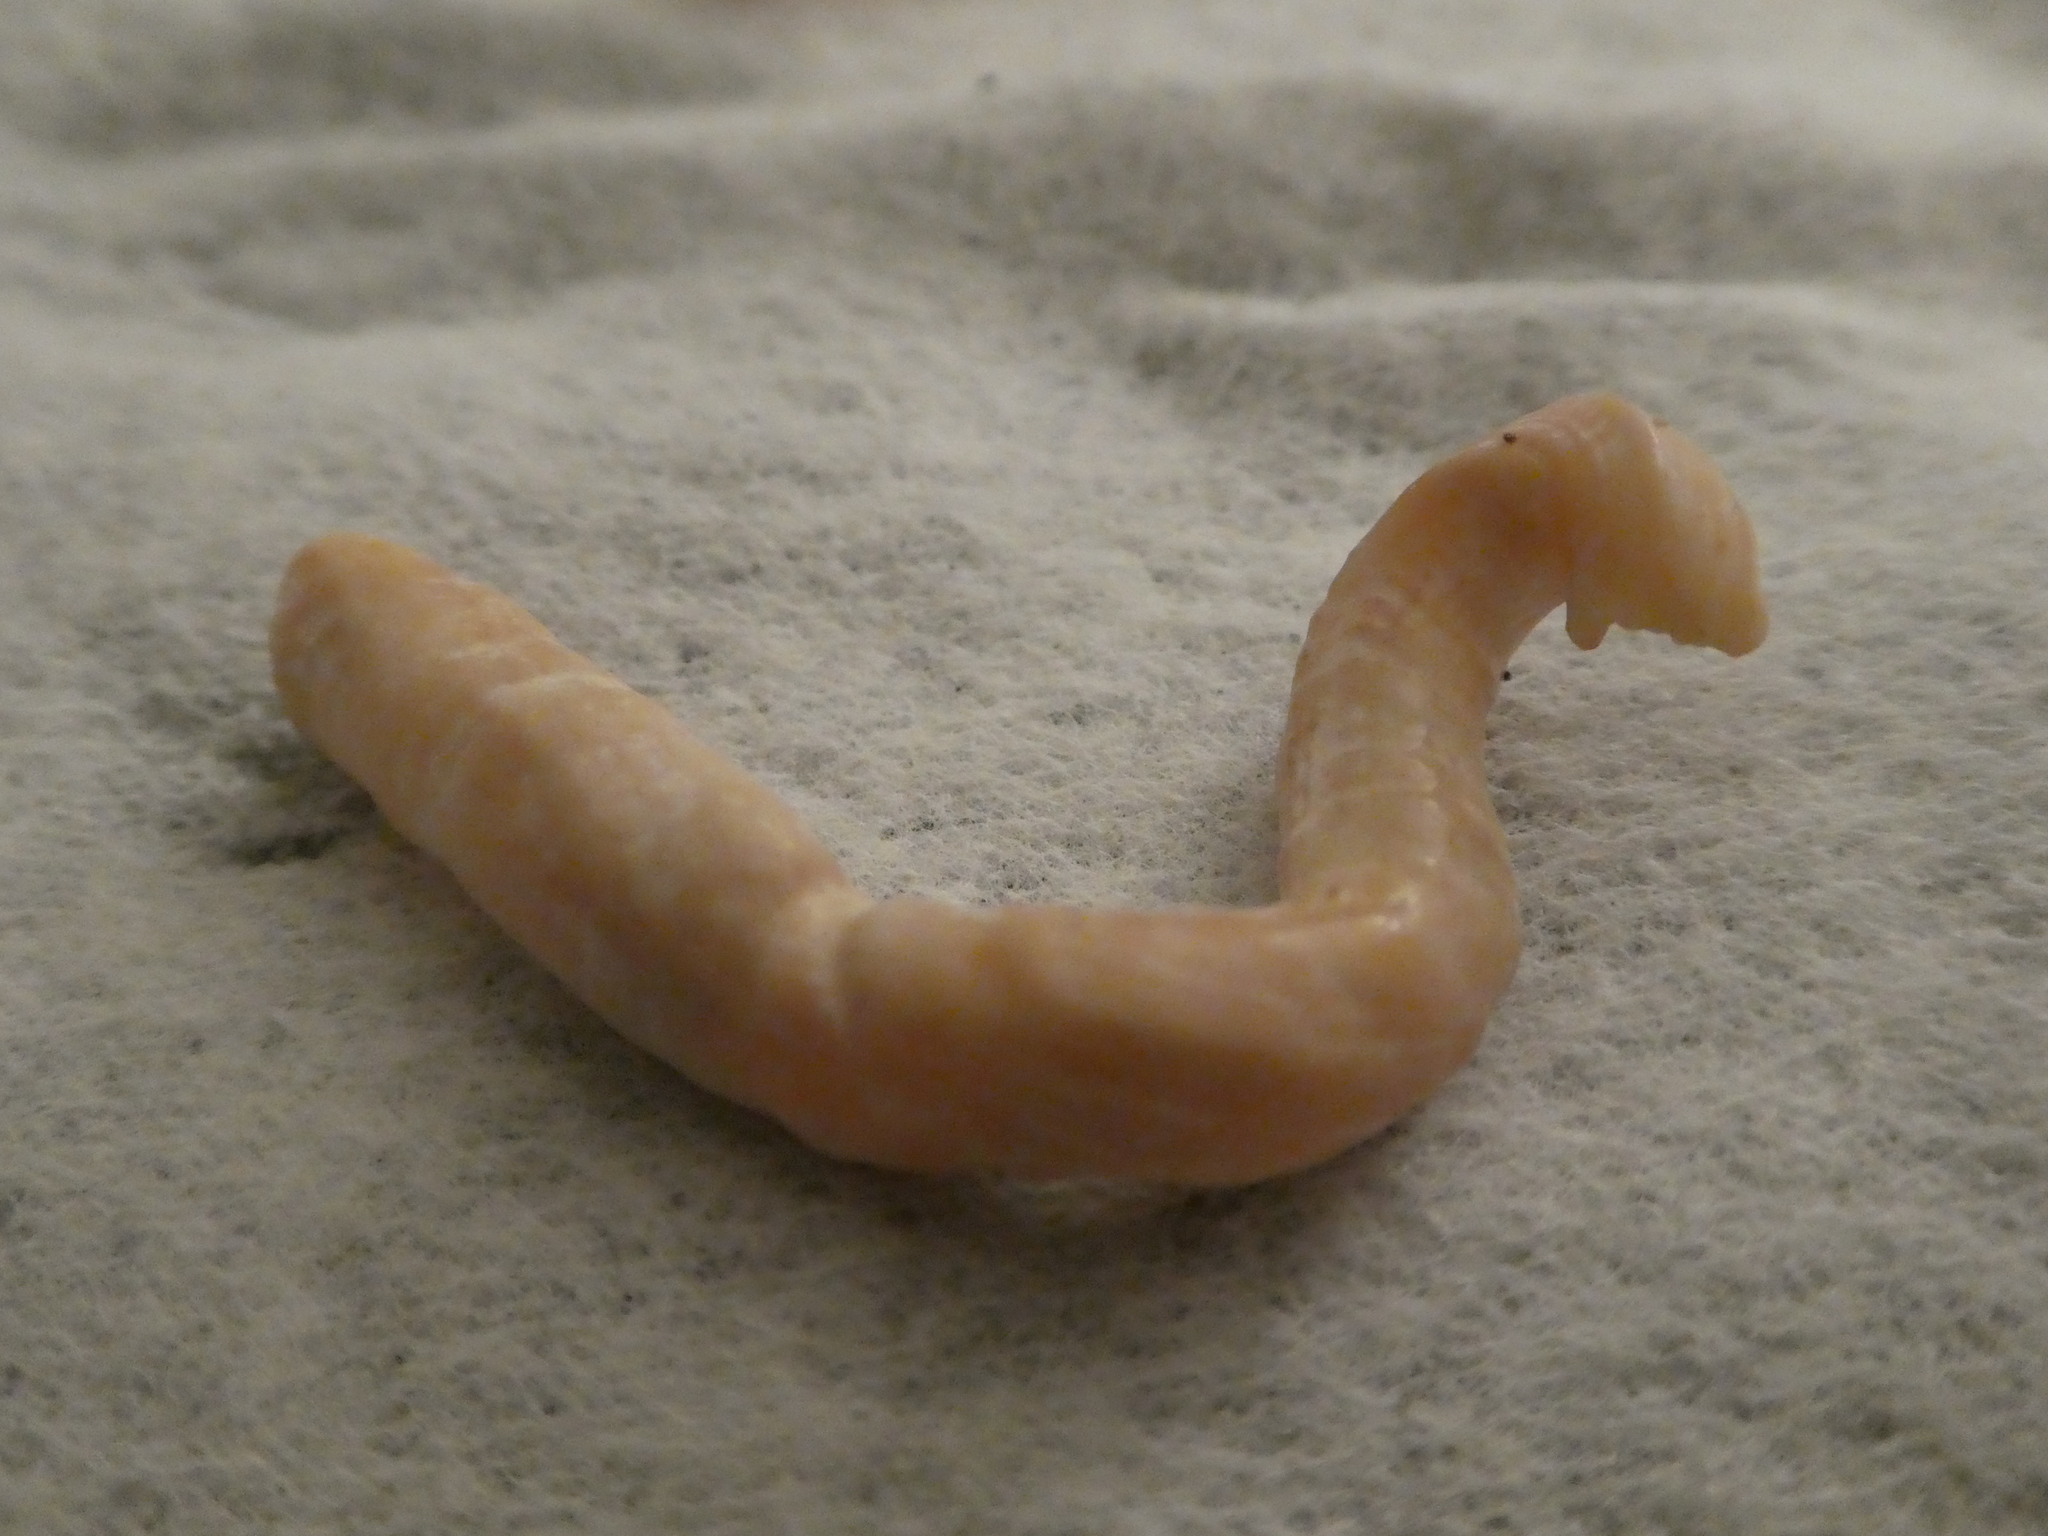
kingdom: Animalia
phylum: Mollusca
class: Gastropoda
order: Littorinimorpha
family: Vermetidae
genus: Thylacodes
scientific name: Thylacodes squamigerus
